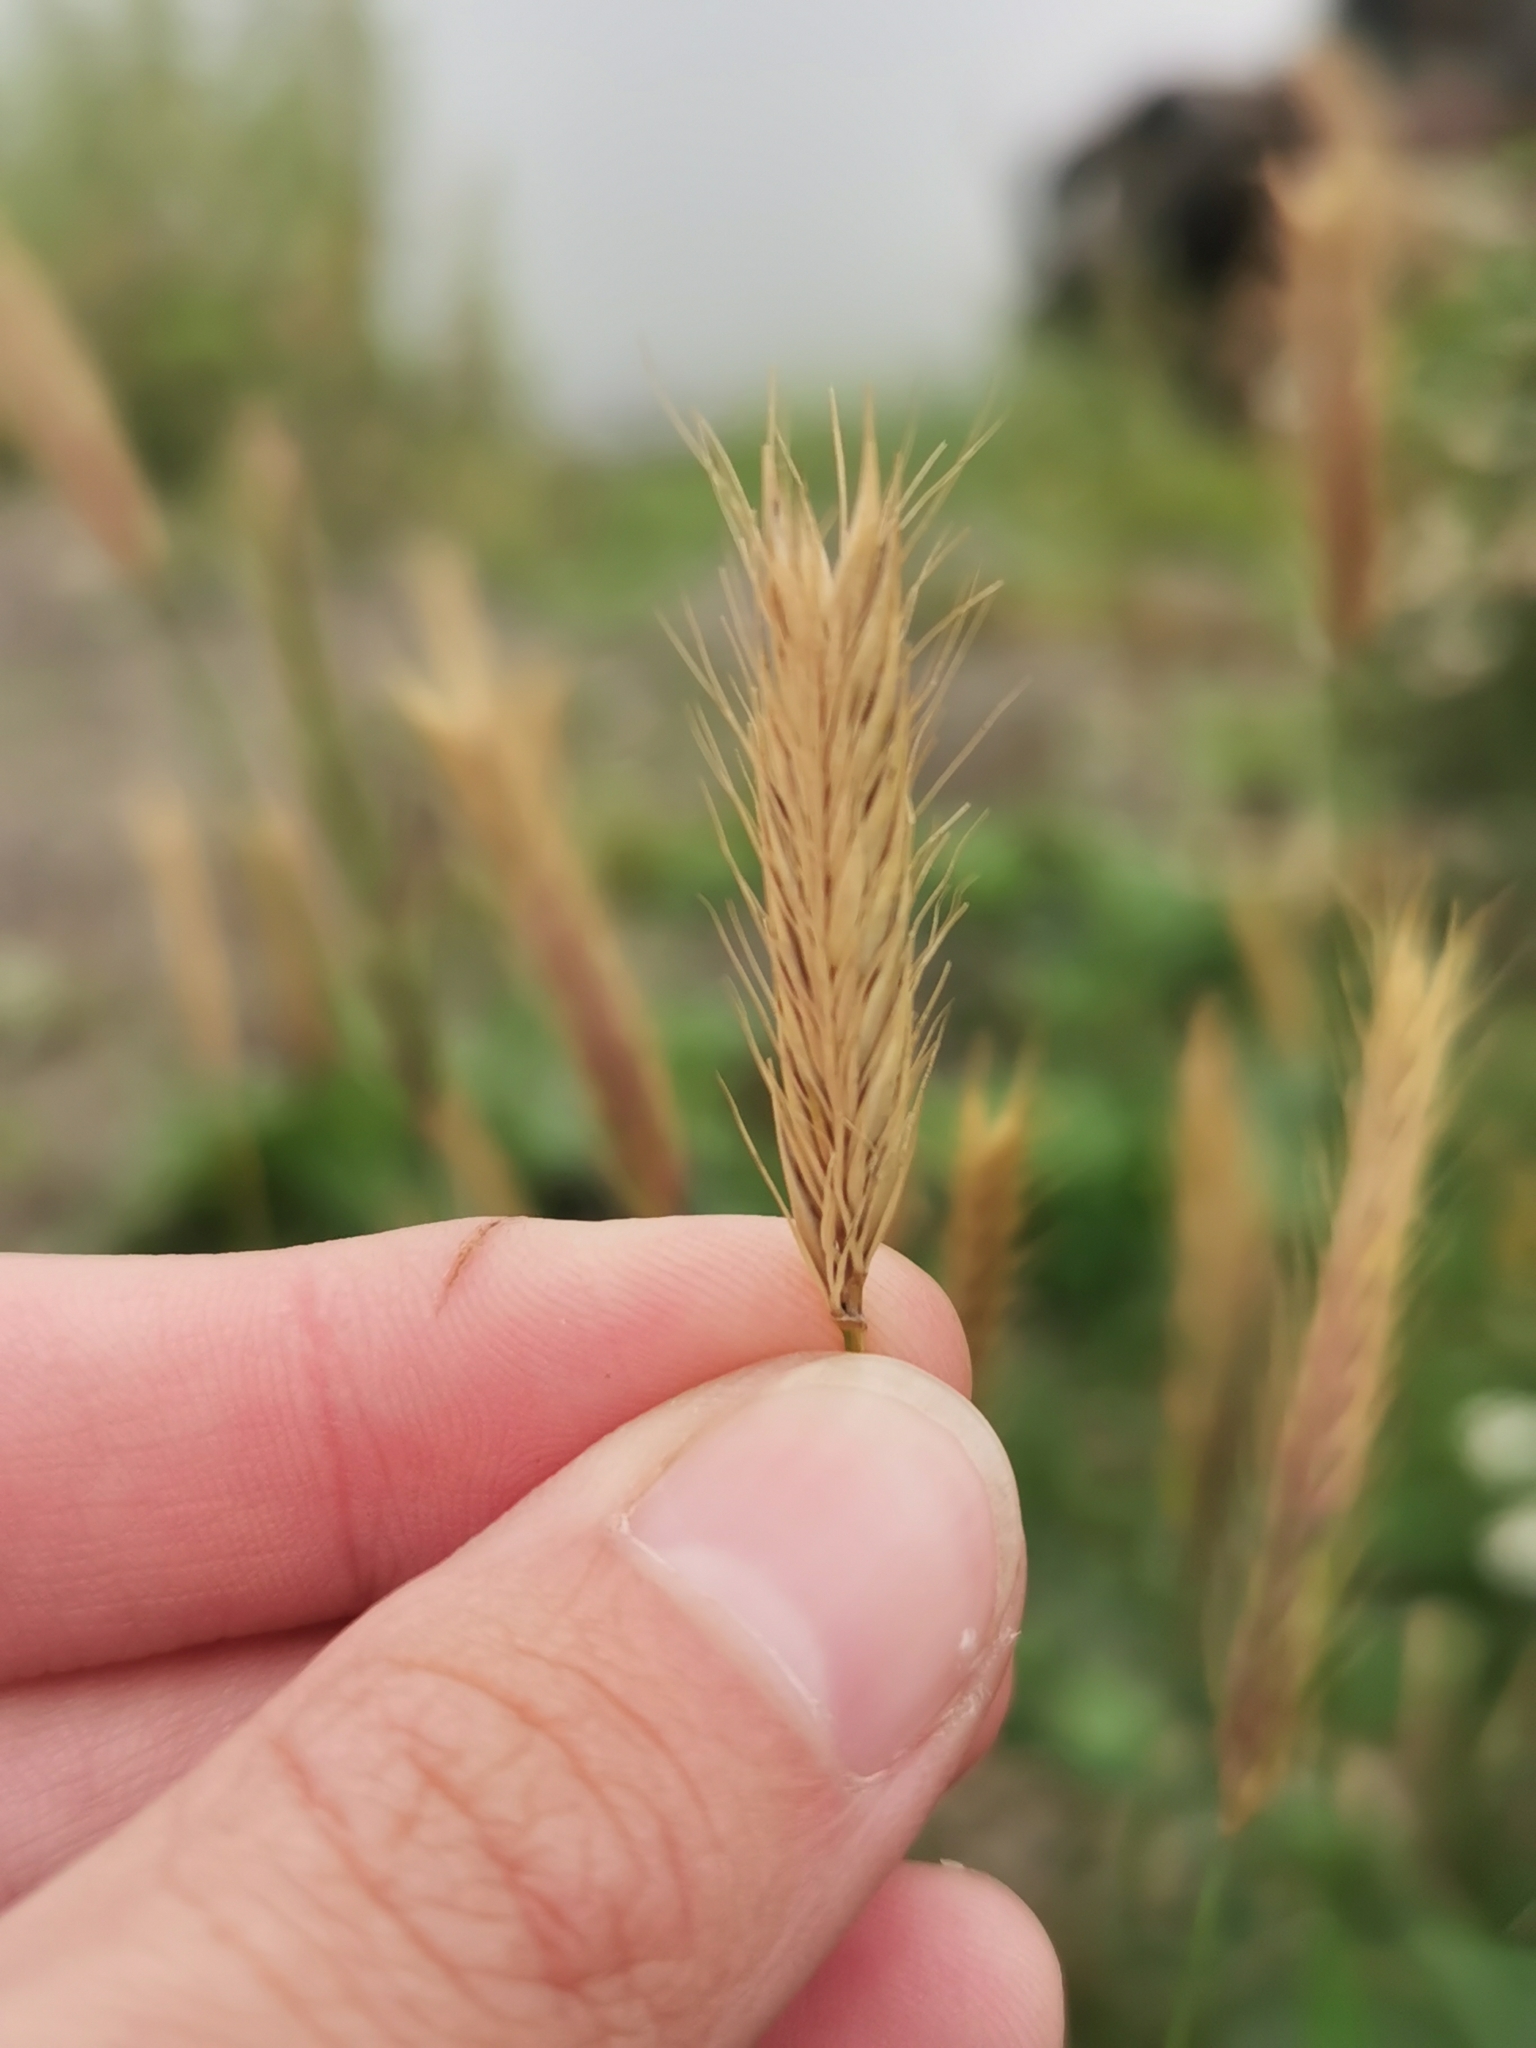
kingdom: Plantae
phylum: Tracheophyta
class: Liliopsida
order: Poales
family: Poaceae
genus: Hordeum
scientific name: Hordeum brachyantherum
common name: Meadow barley
